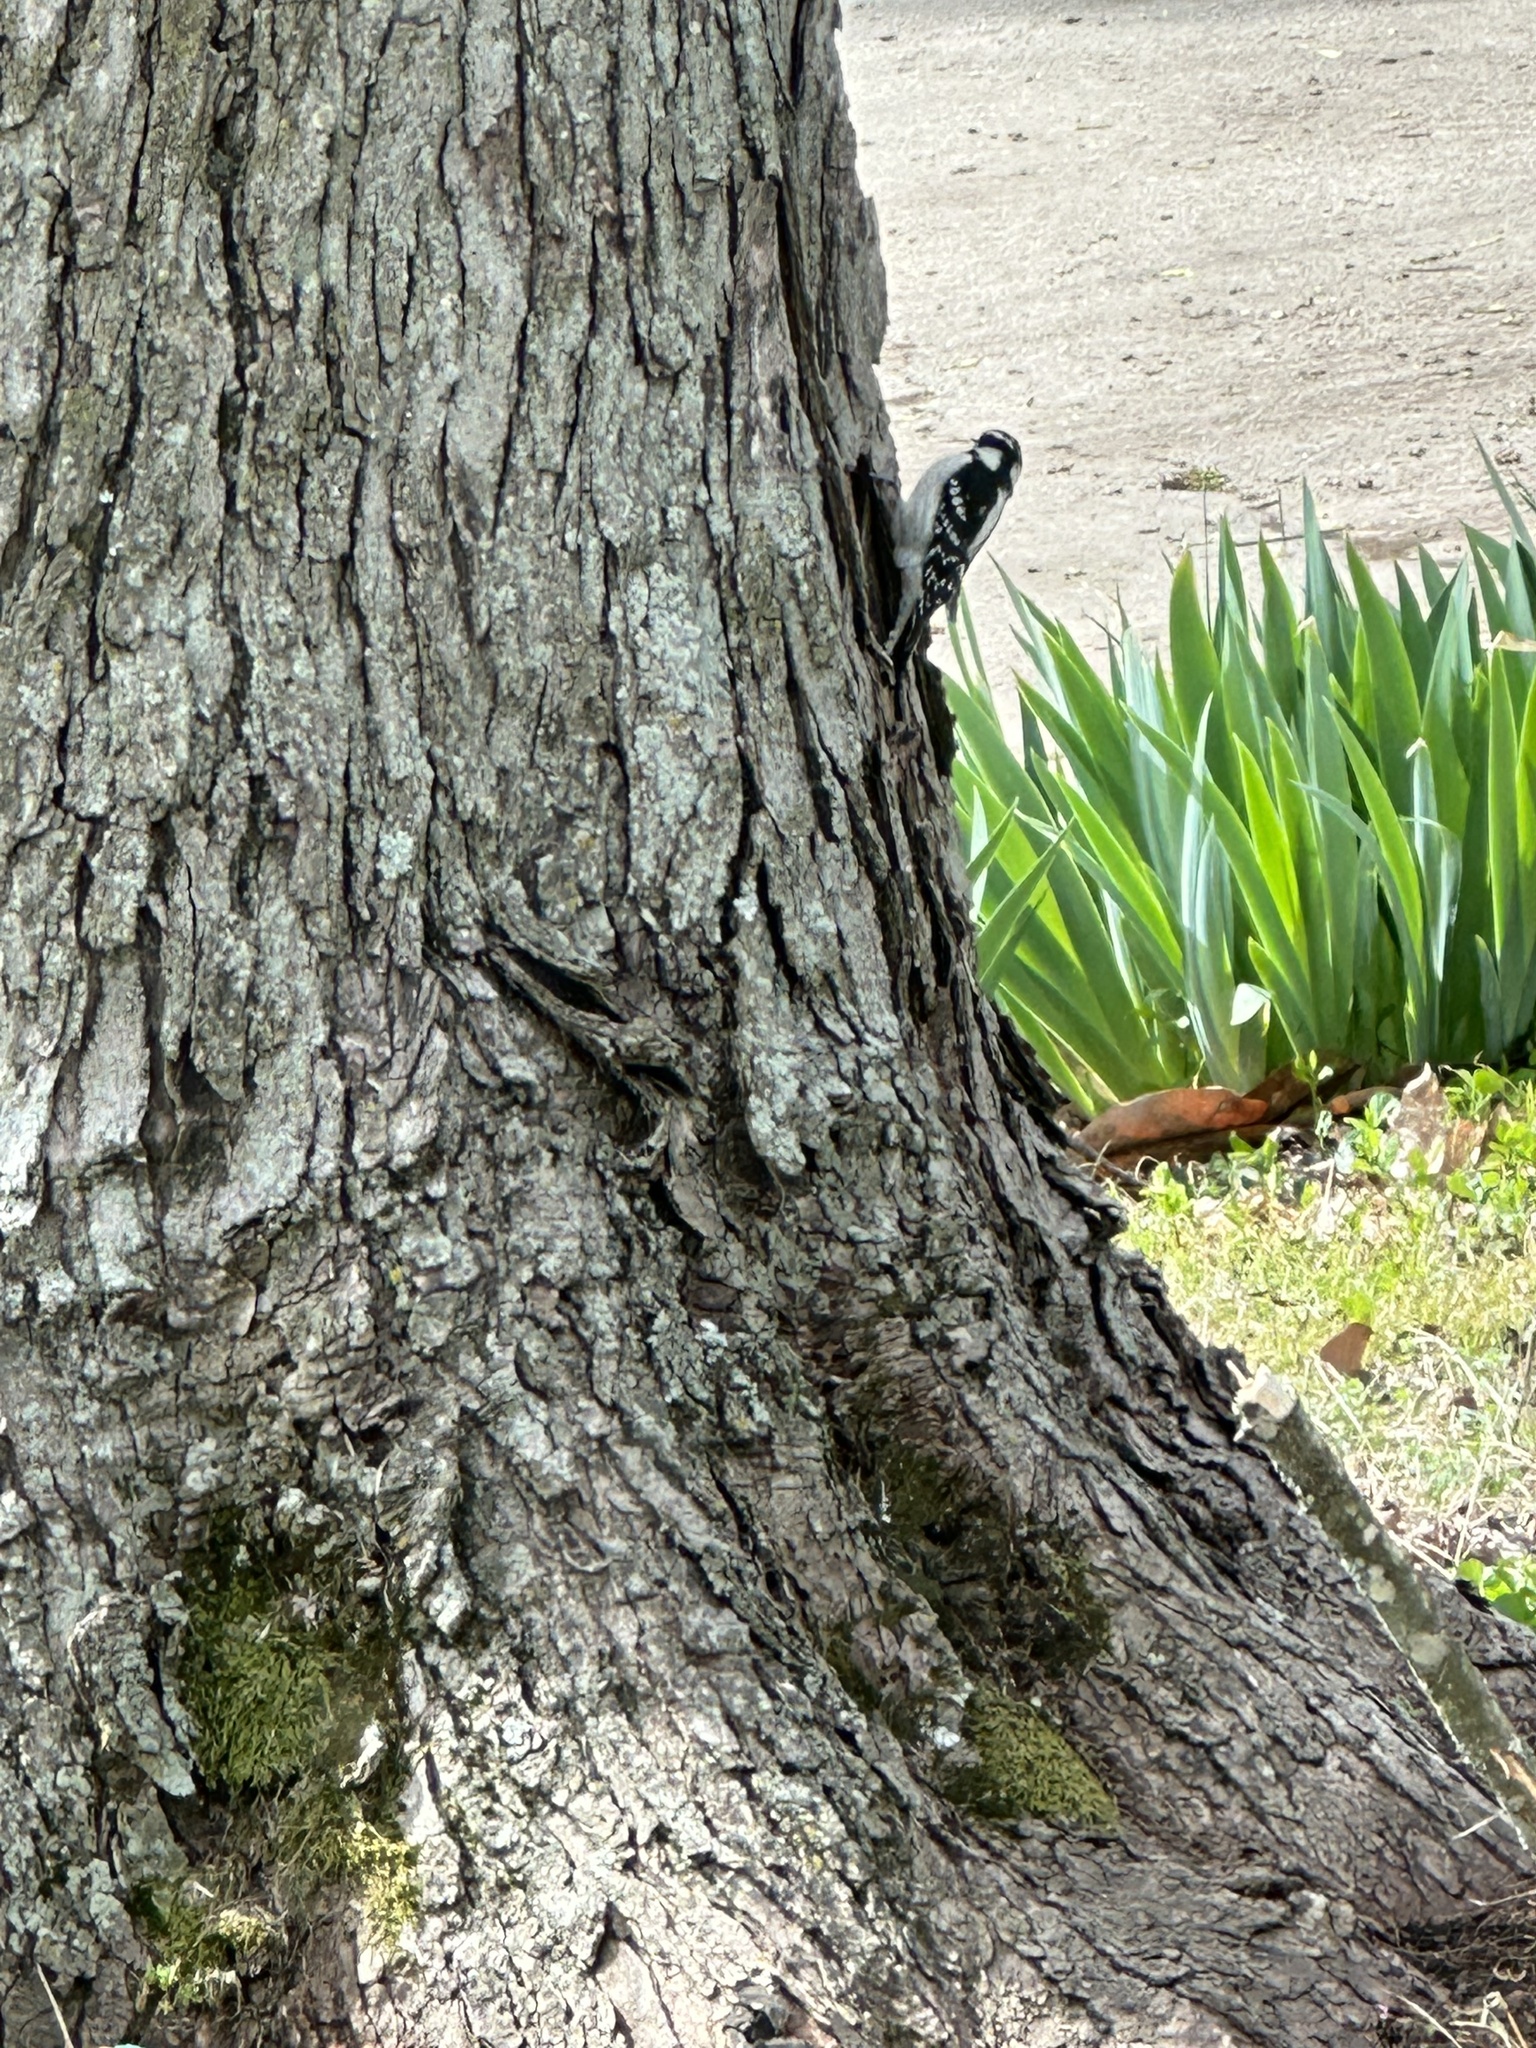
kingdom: Animalia
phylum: Chordata
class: Aves
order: Piciformes
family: Picidae
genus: Dryobates
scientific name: Dryobates pubescens
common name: Downy woodpecker
